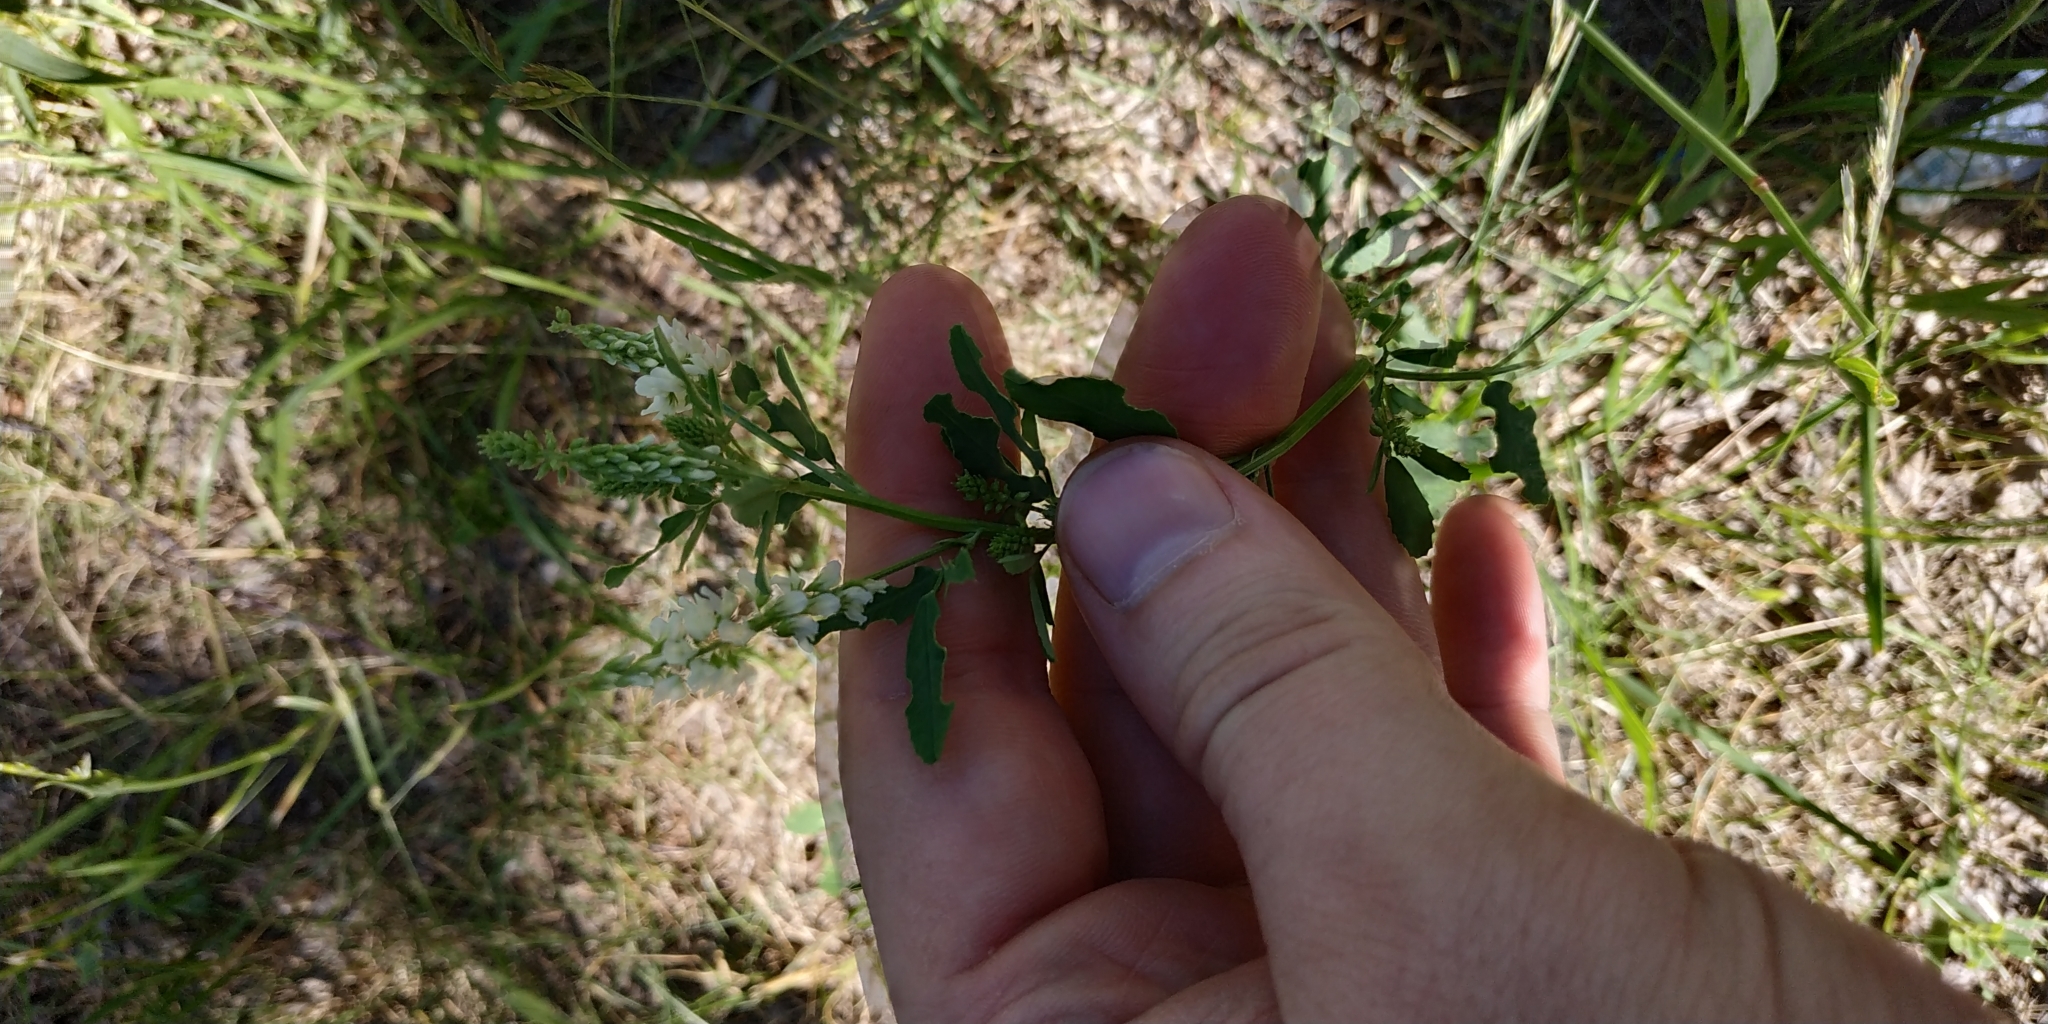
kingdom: Plantae
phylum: Tracheophyta
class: Magnoliopsida
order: Fabales
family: Fabaceae
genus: Melilotus
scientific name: Melilotus albus
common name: White melilot
